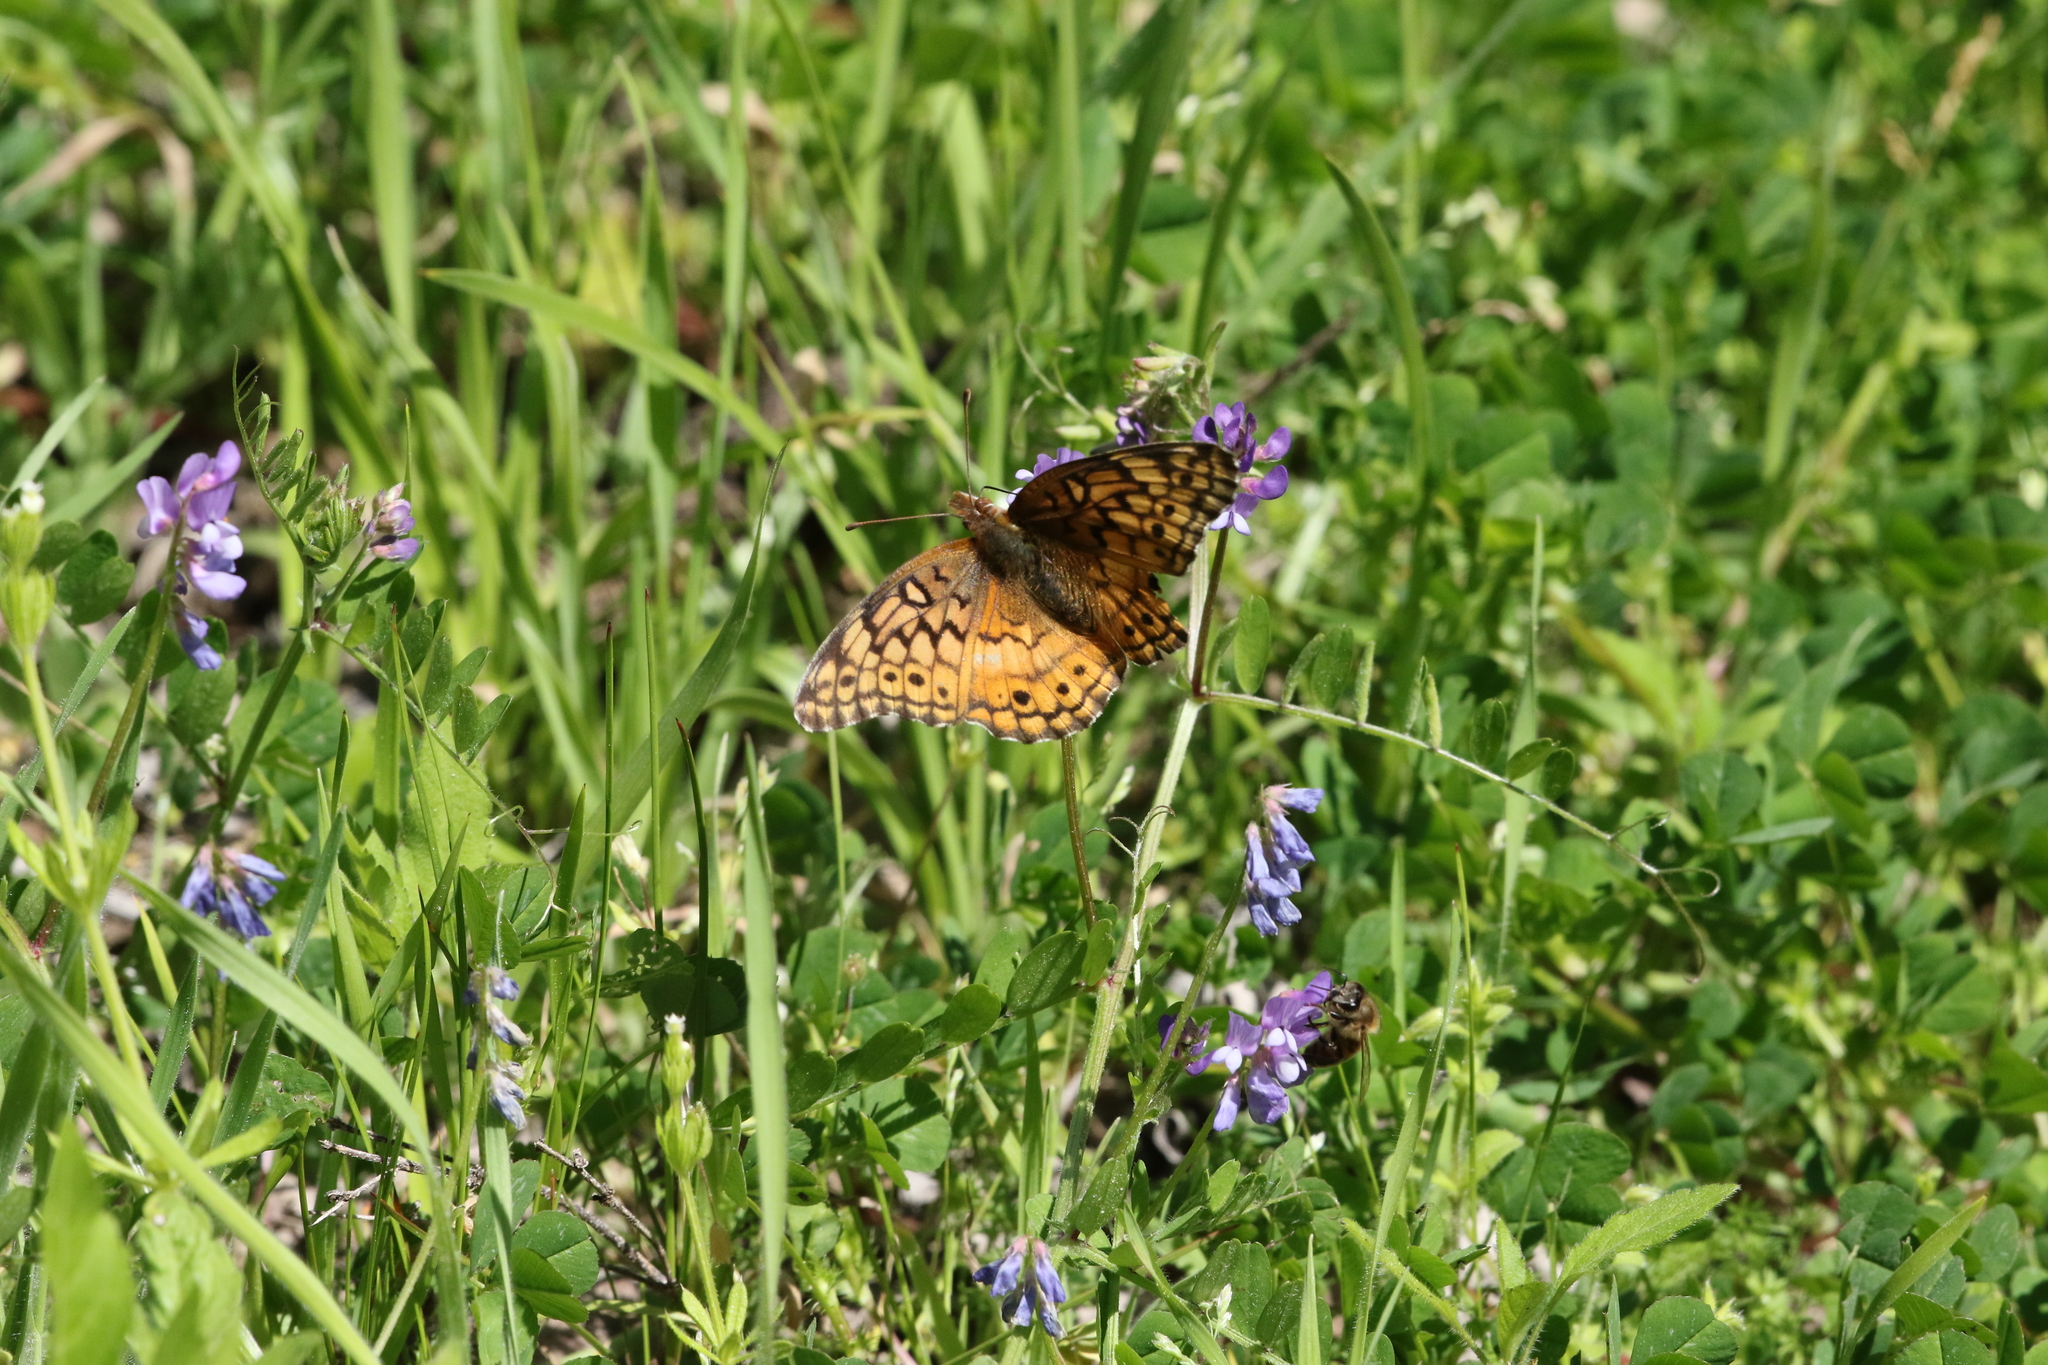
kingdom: Animalia
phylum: Arthropoda
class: Insecta
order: Lepidoptera
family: Nymphalidae
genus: Euptoieta
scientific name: Euptoieta claudia
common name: Variegated fritillary
